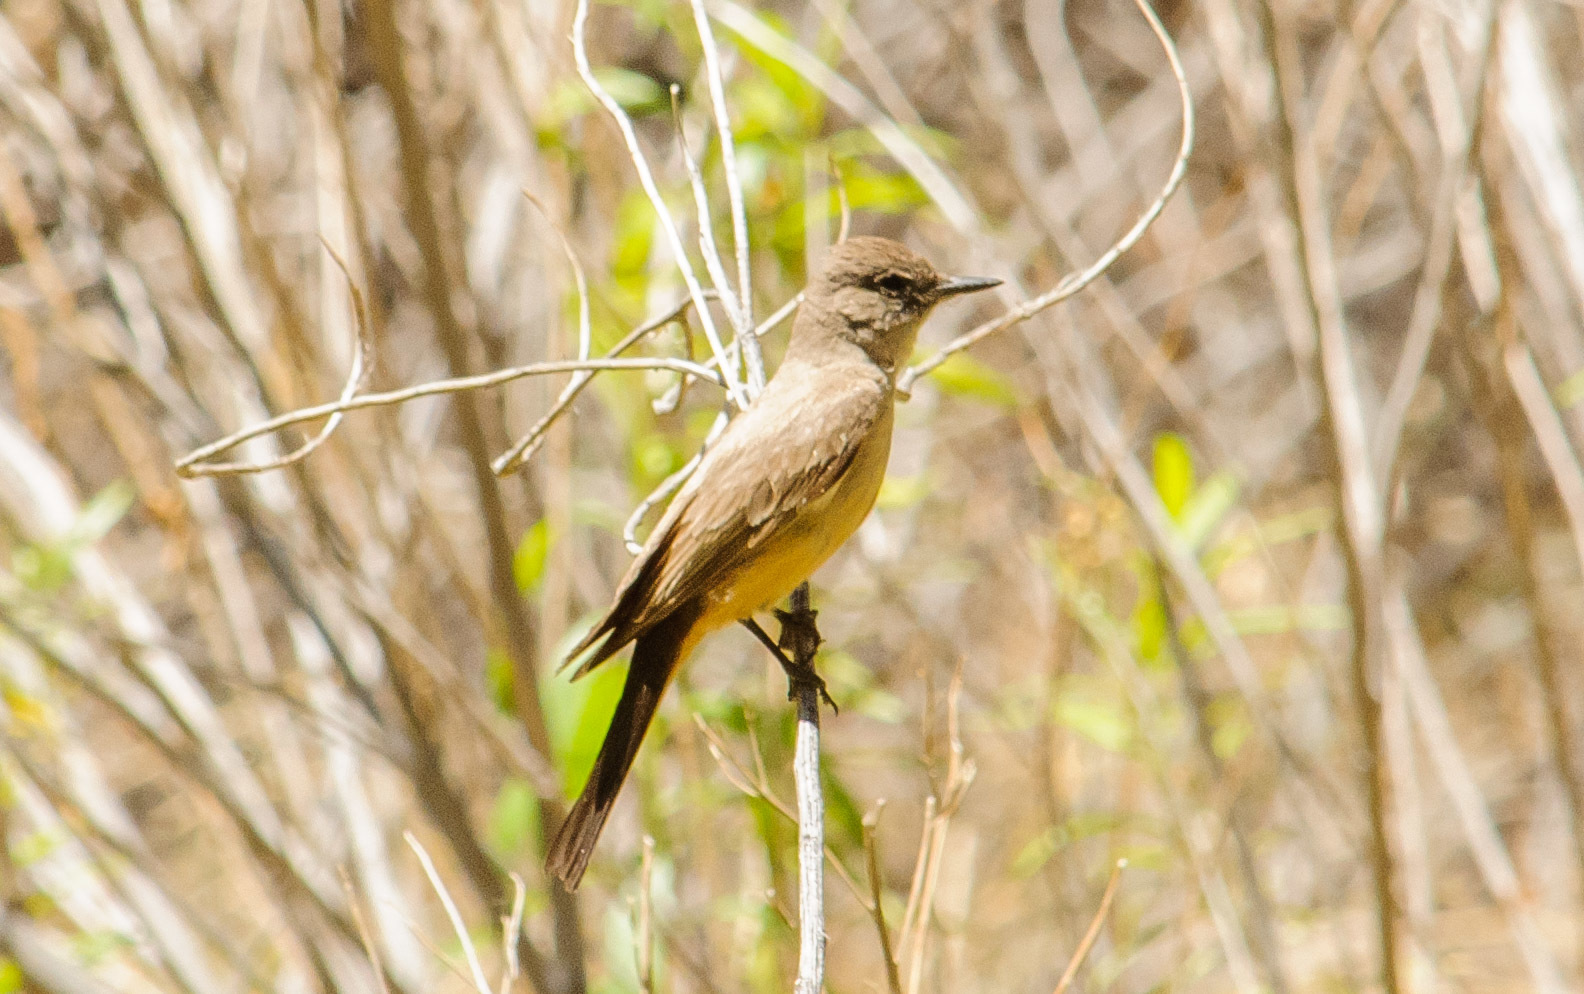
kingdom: Animalia
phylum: Chordata
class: Aves
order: Passeriformes
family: Tyrannidae
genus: Sayornis
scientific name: Sayornis saya
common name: Say's phoebe
